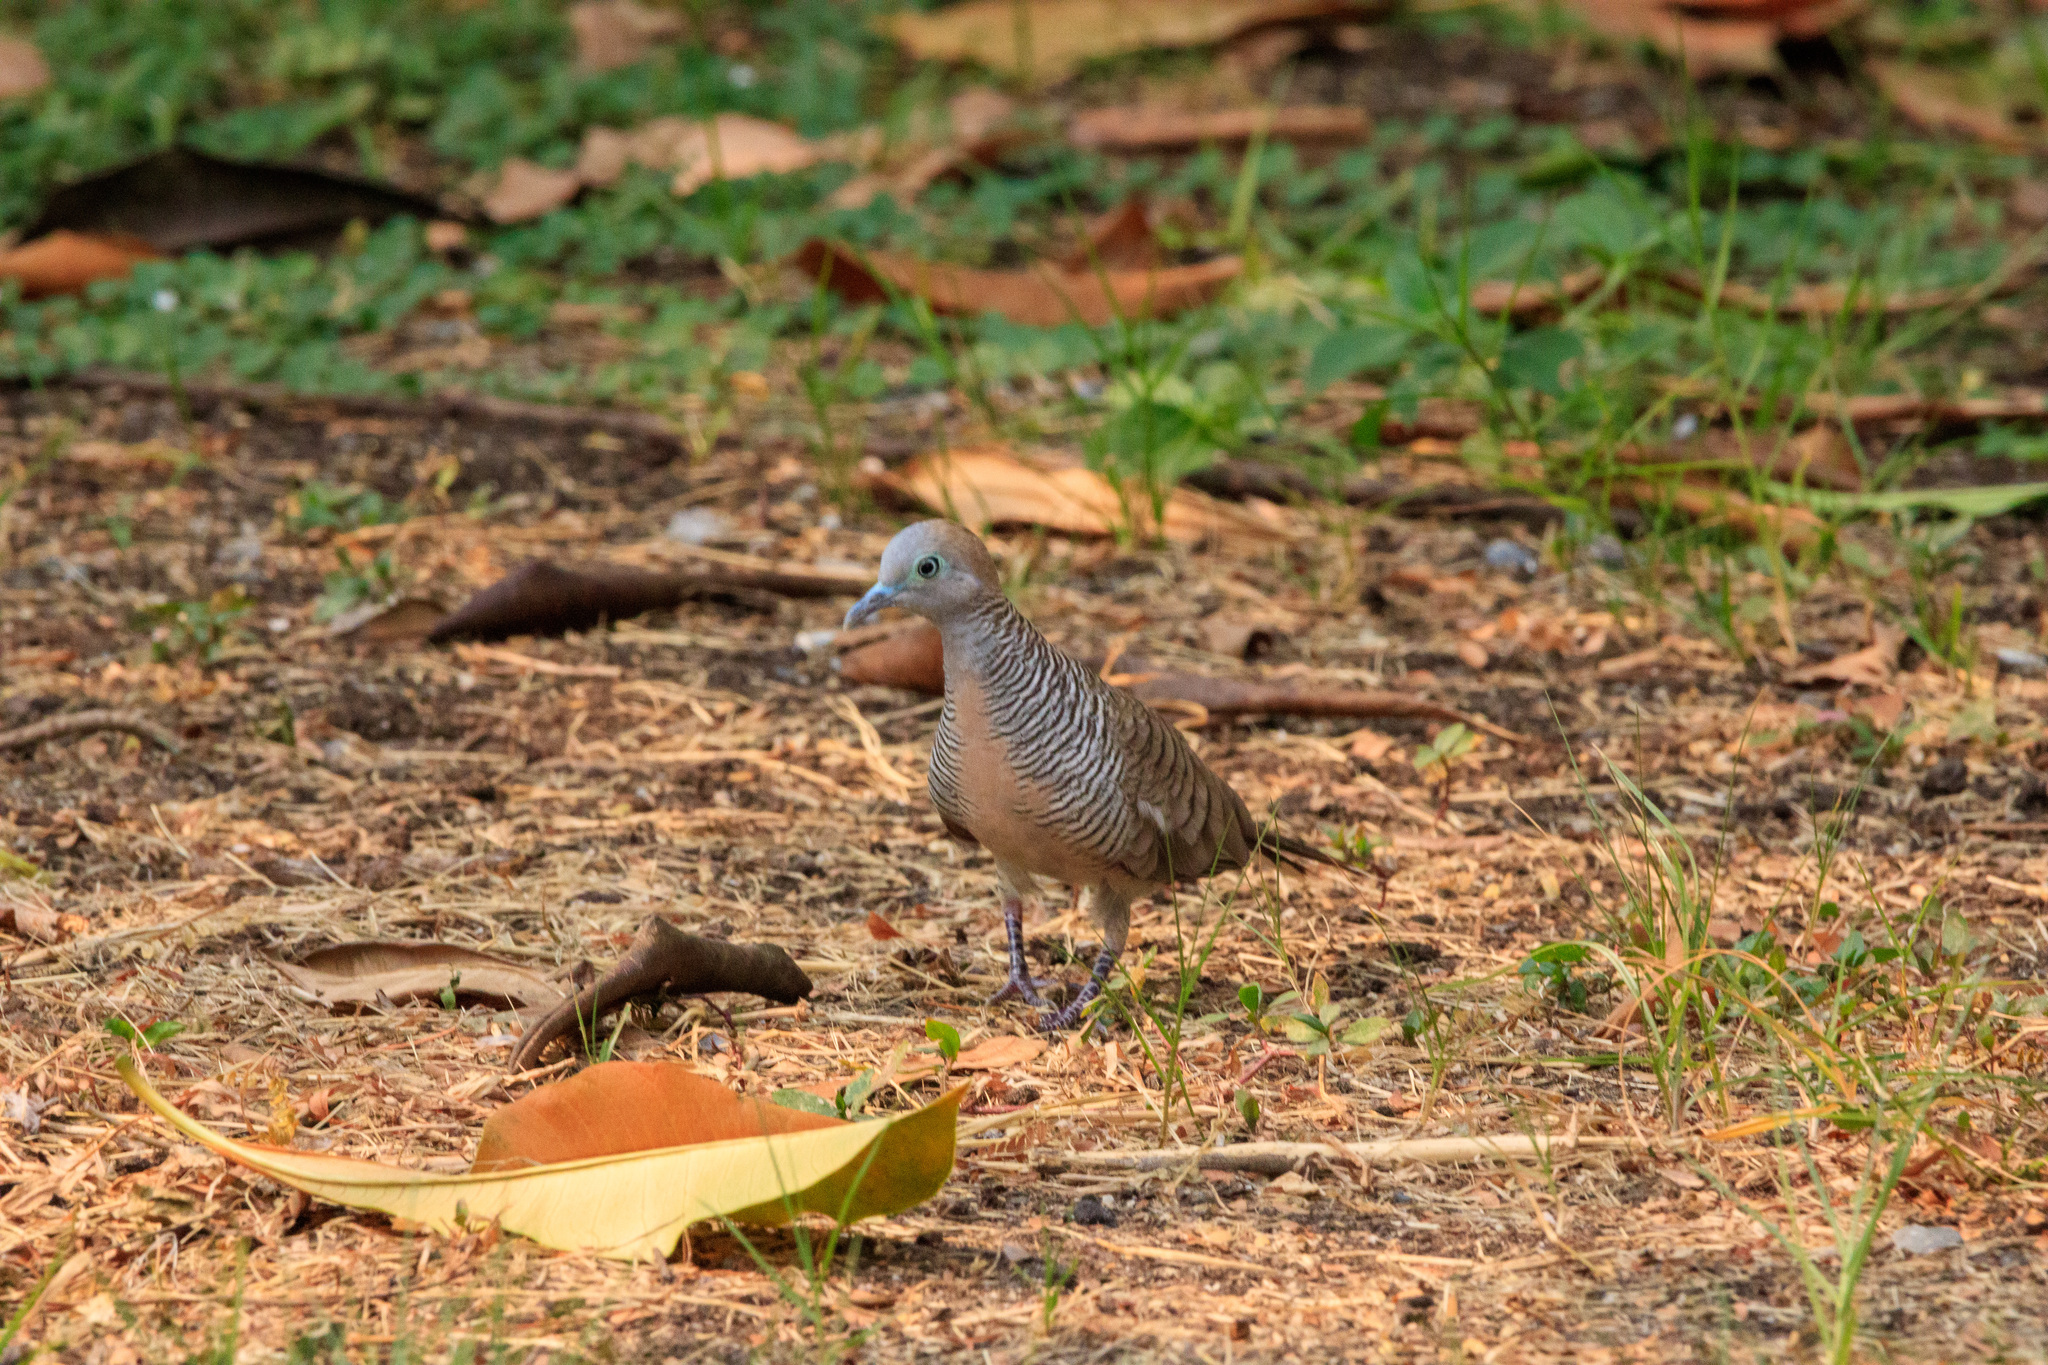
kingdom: Animalia
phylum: Chordata
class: Aves
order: Columbiformes
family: Columbidae
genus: Geopelia
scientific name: Geopelia striata
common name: Zebra dove
